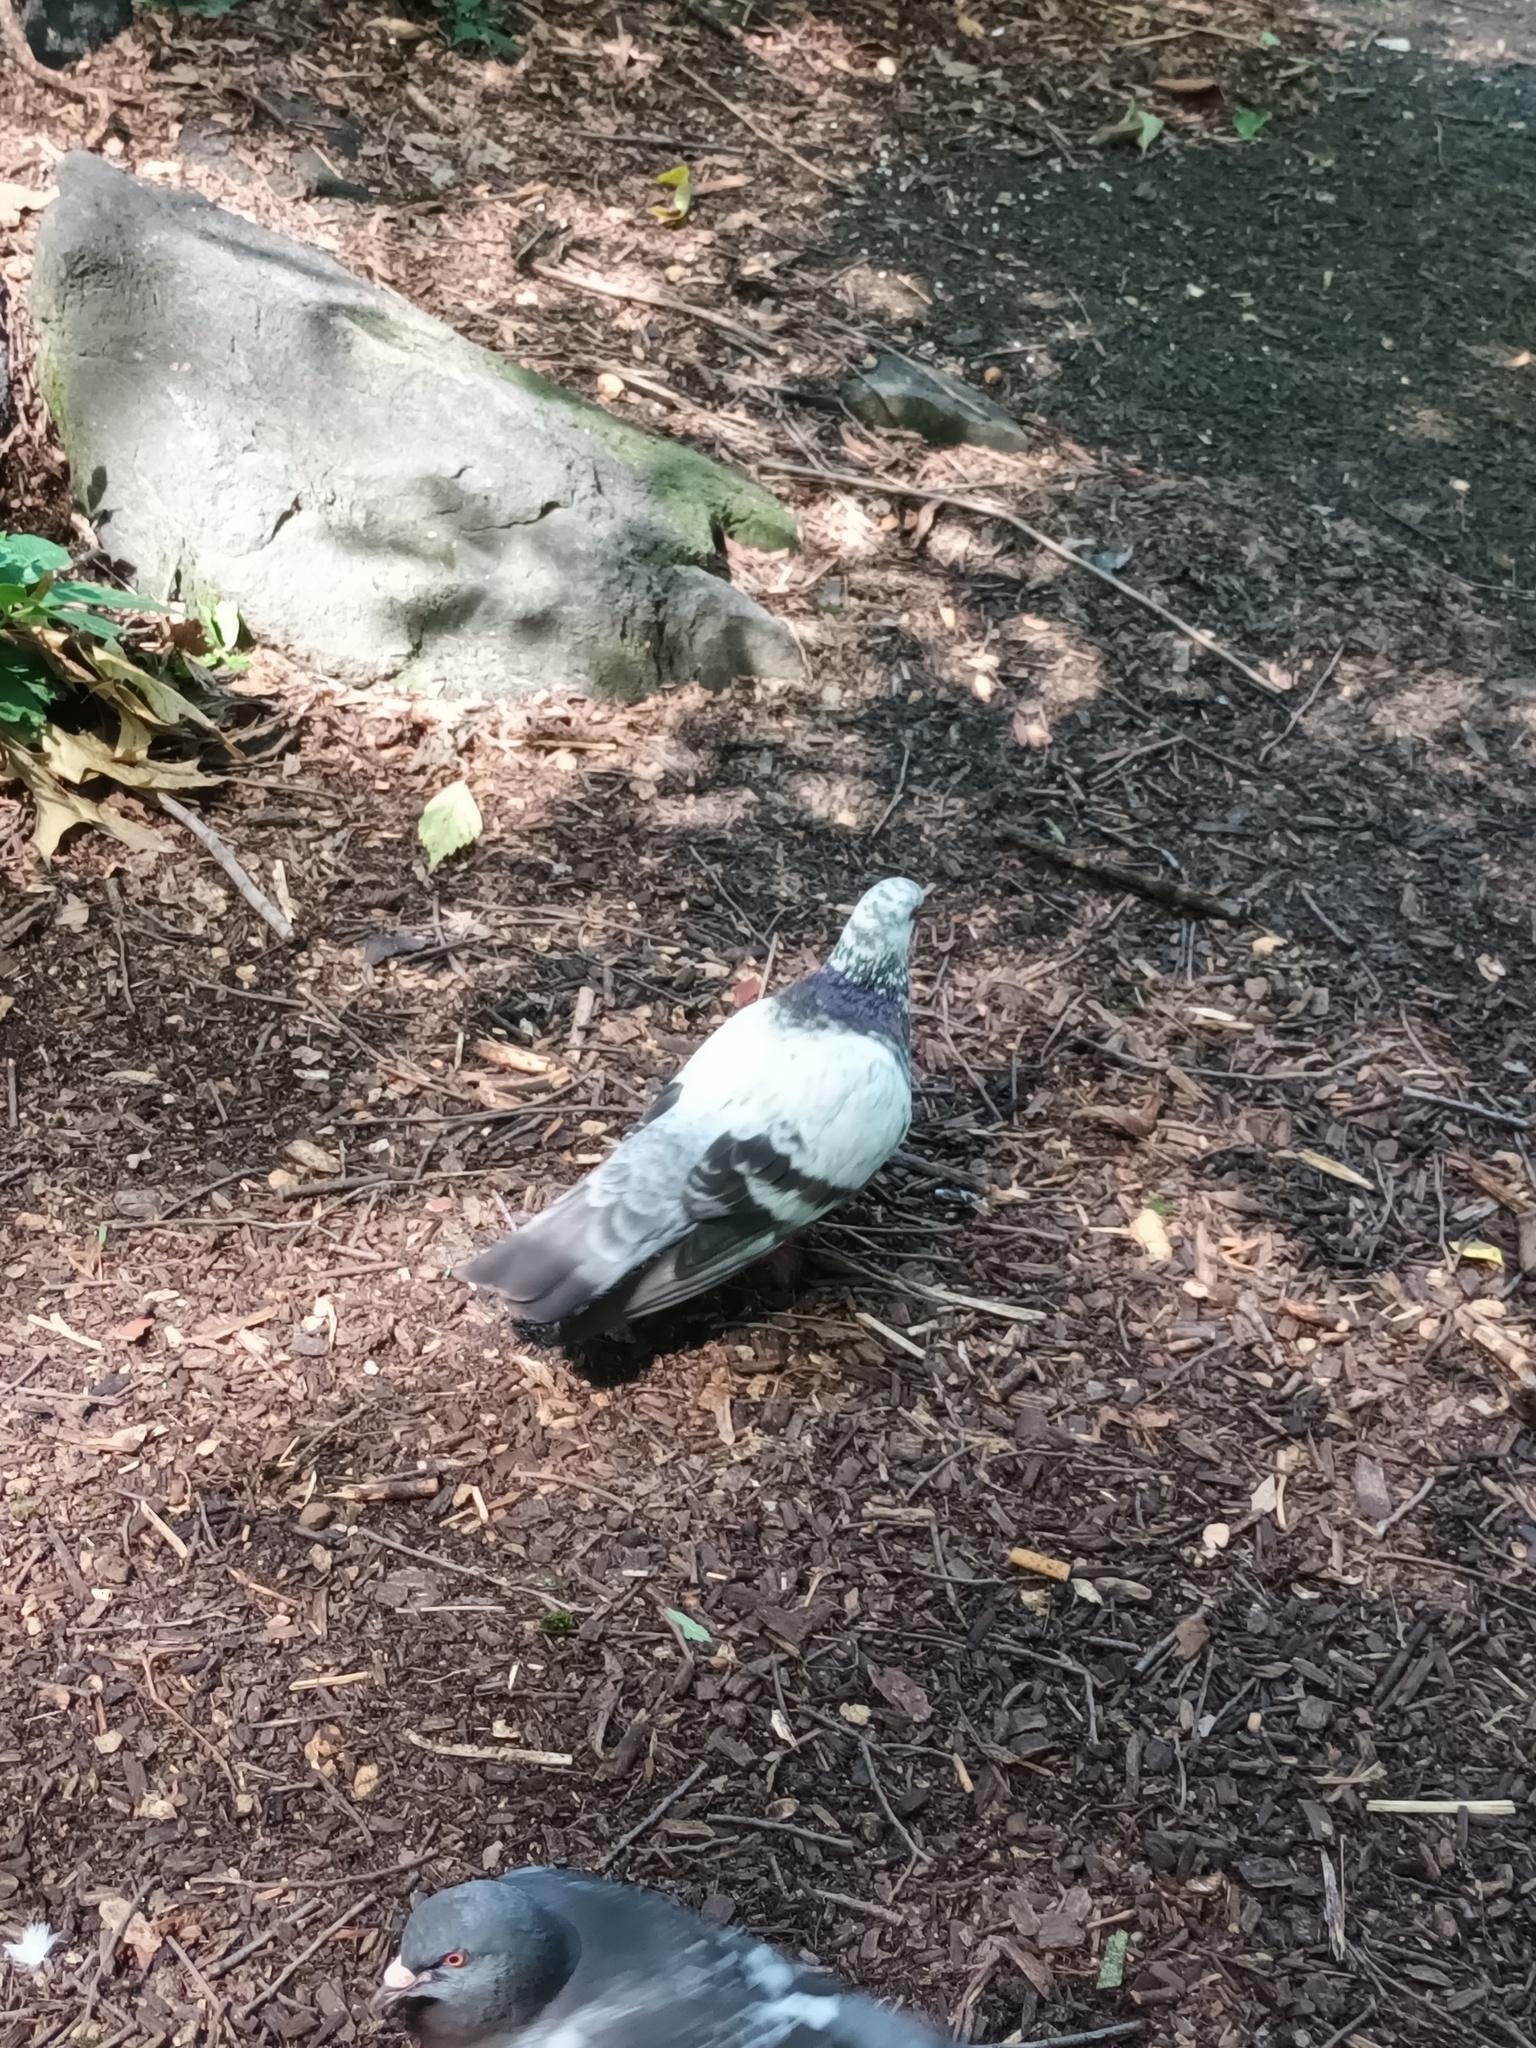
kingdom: Animalia
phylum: Chordata
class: Aves
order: Columbiformes
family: Columbidae
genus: Columba
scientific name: Columba livia
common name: Rock pigeon
